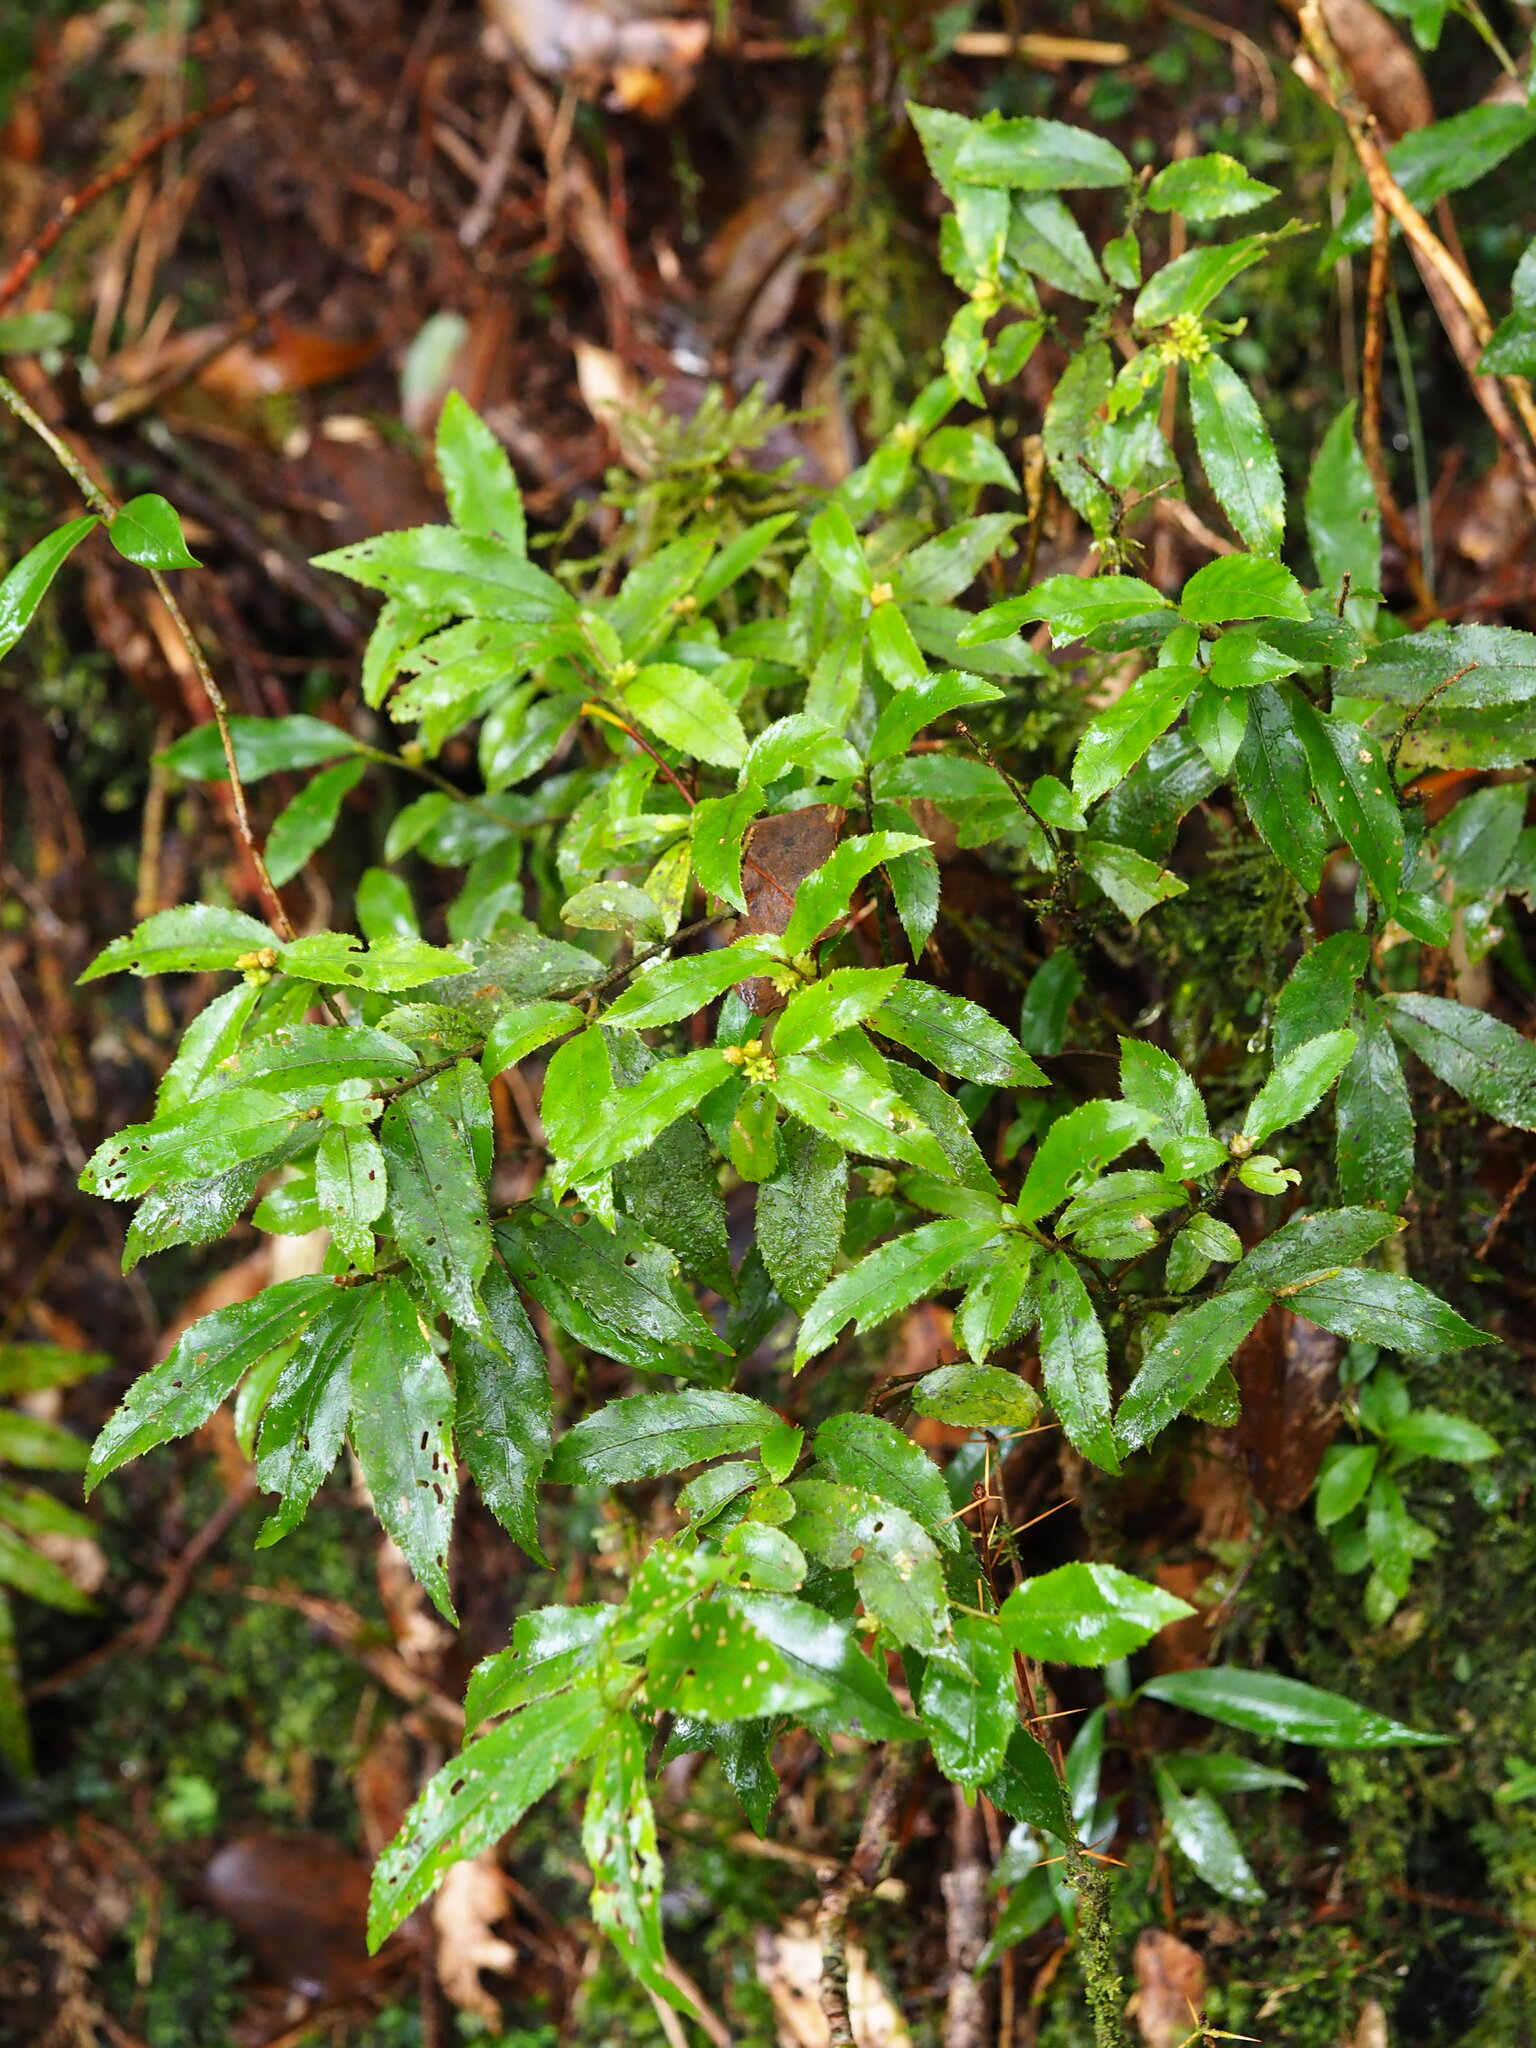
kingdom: Plantae
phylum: Tracheophyta
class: Magnoliopsida
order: Ericales
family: Symplocaceae
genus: Symplocos
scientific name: Symplocos lancifolia
